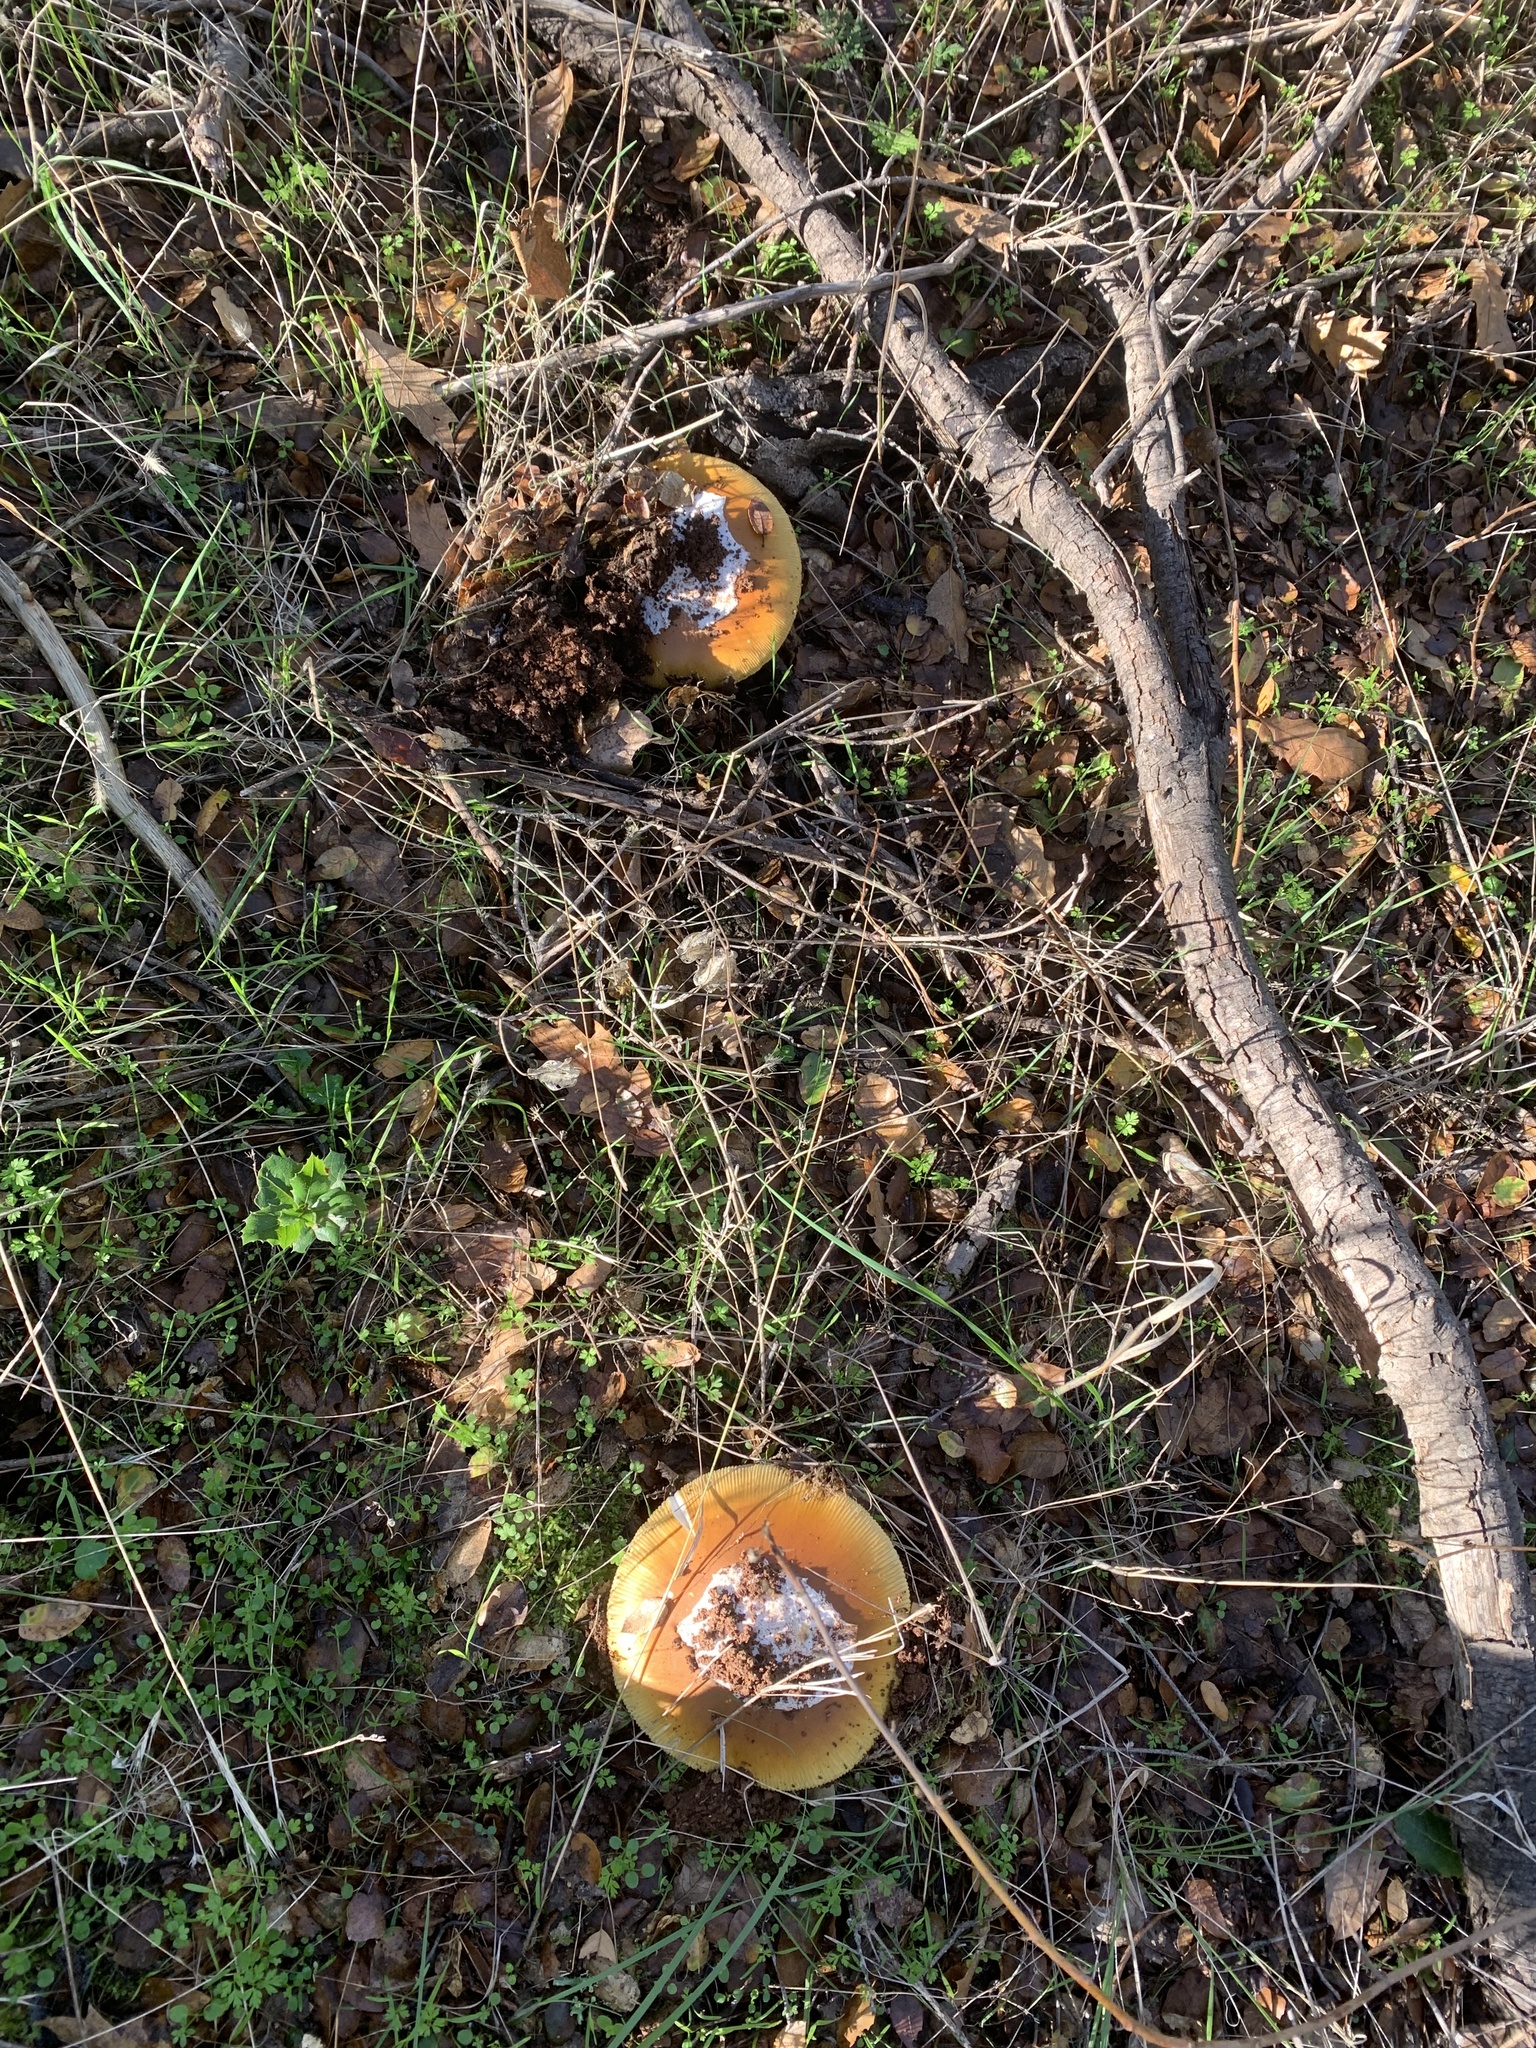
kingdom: Fungi
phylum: Basidiomycota
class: Agaricomycetes
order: Agaricales
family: Amanitaceae
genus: Amanita
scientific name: Amanita calyptroderma
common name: Coccora
